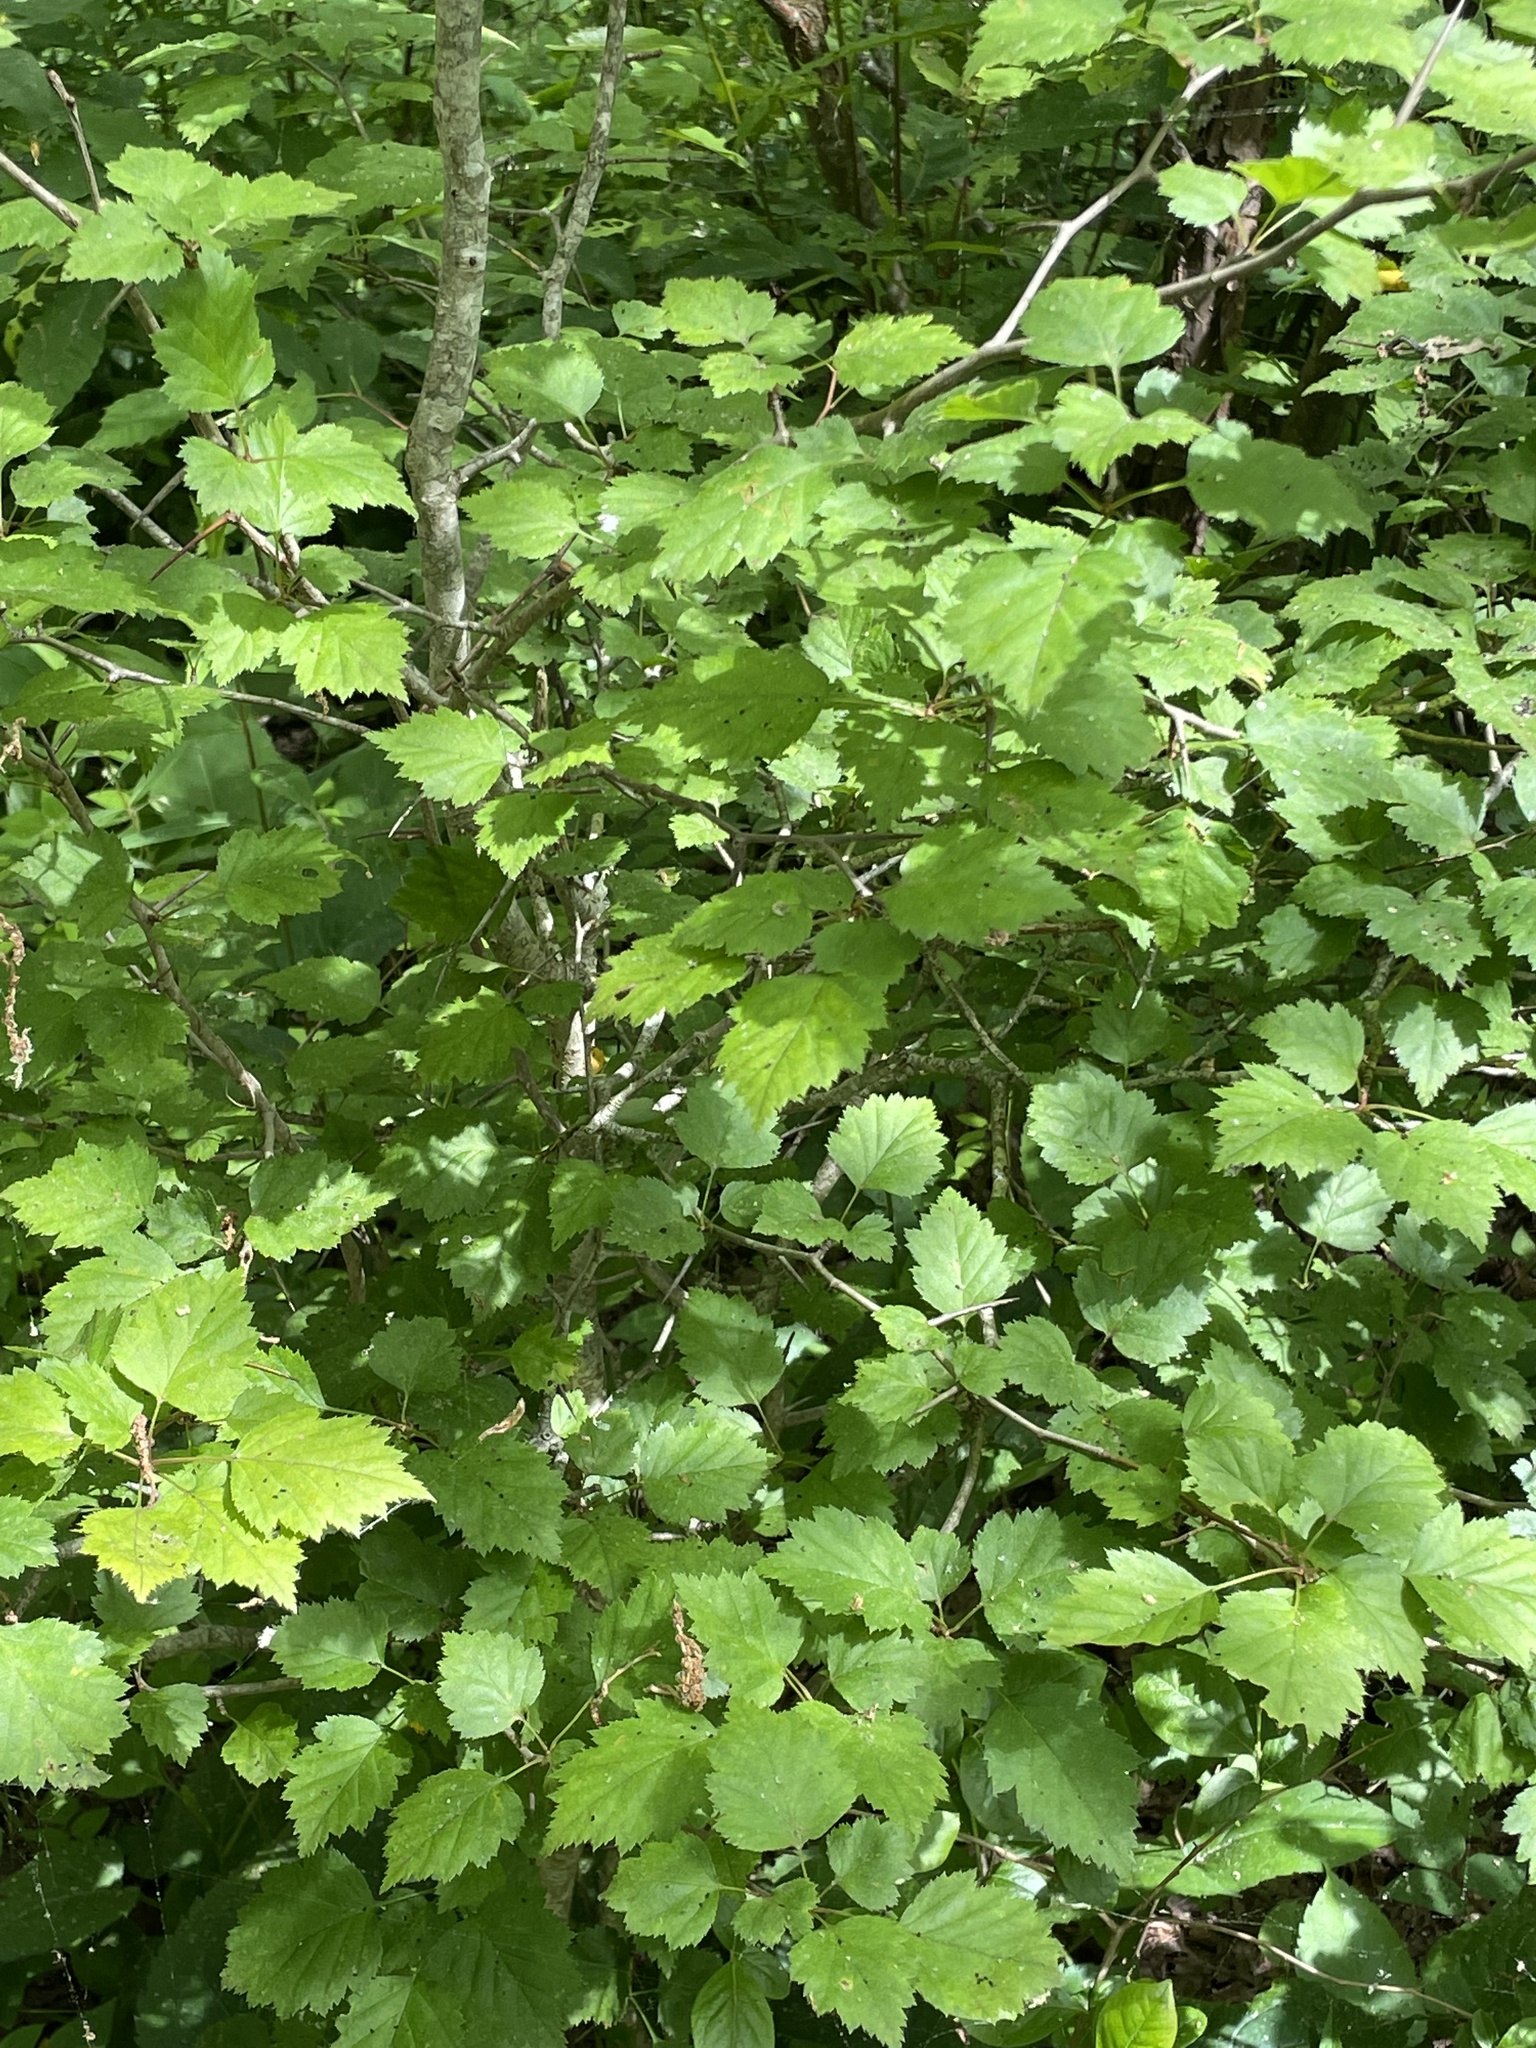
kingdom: Plantae
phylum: Tracheophyta
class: Magnoliopsida
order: Rosales
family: Rosaceae
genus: Crataegus
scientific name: Crataegus iracunda
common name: Stolon-bearing hawthorn
